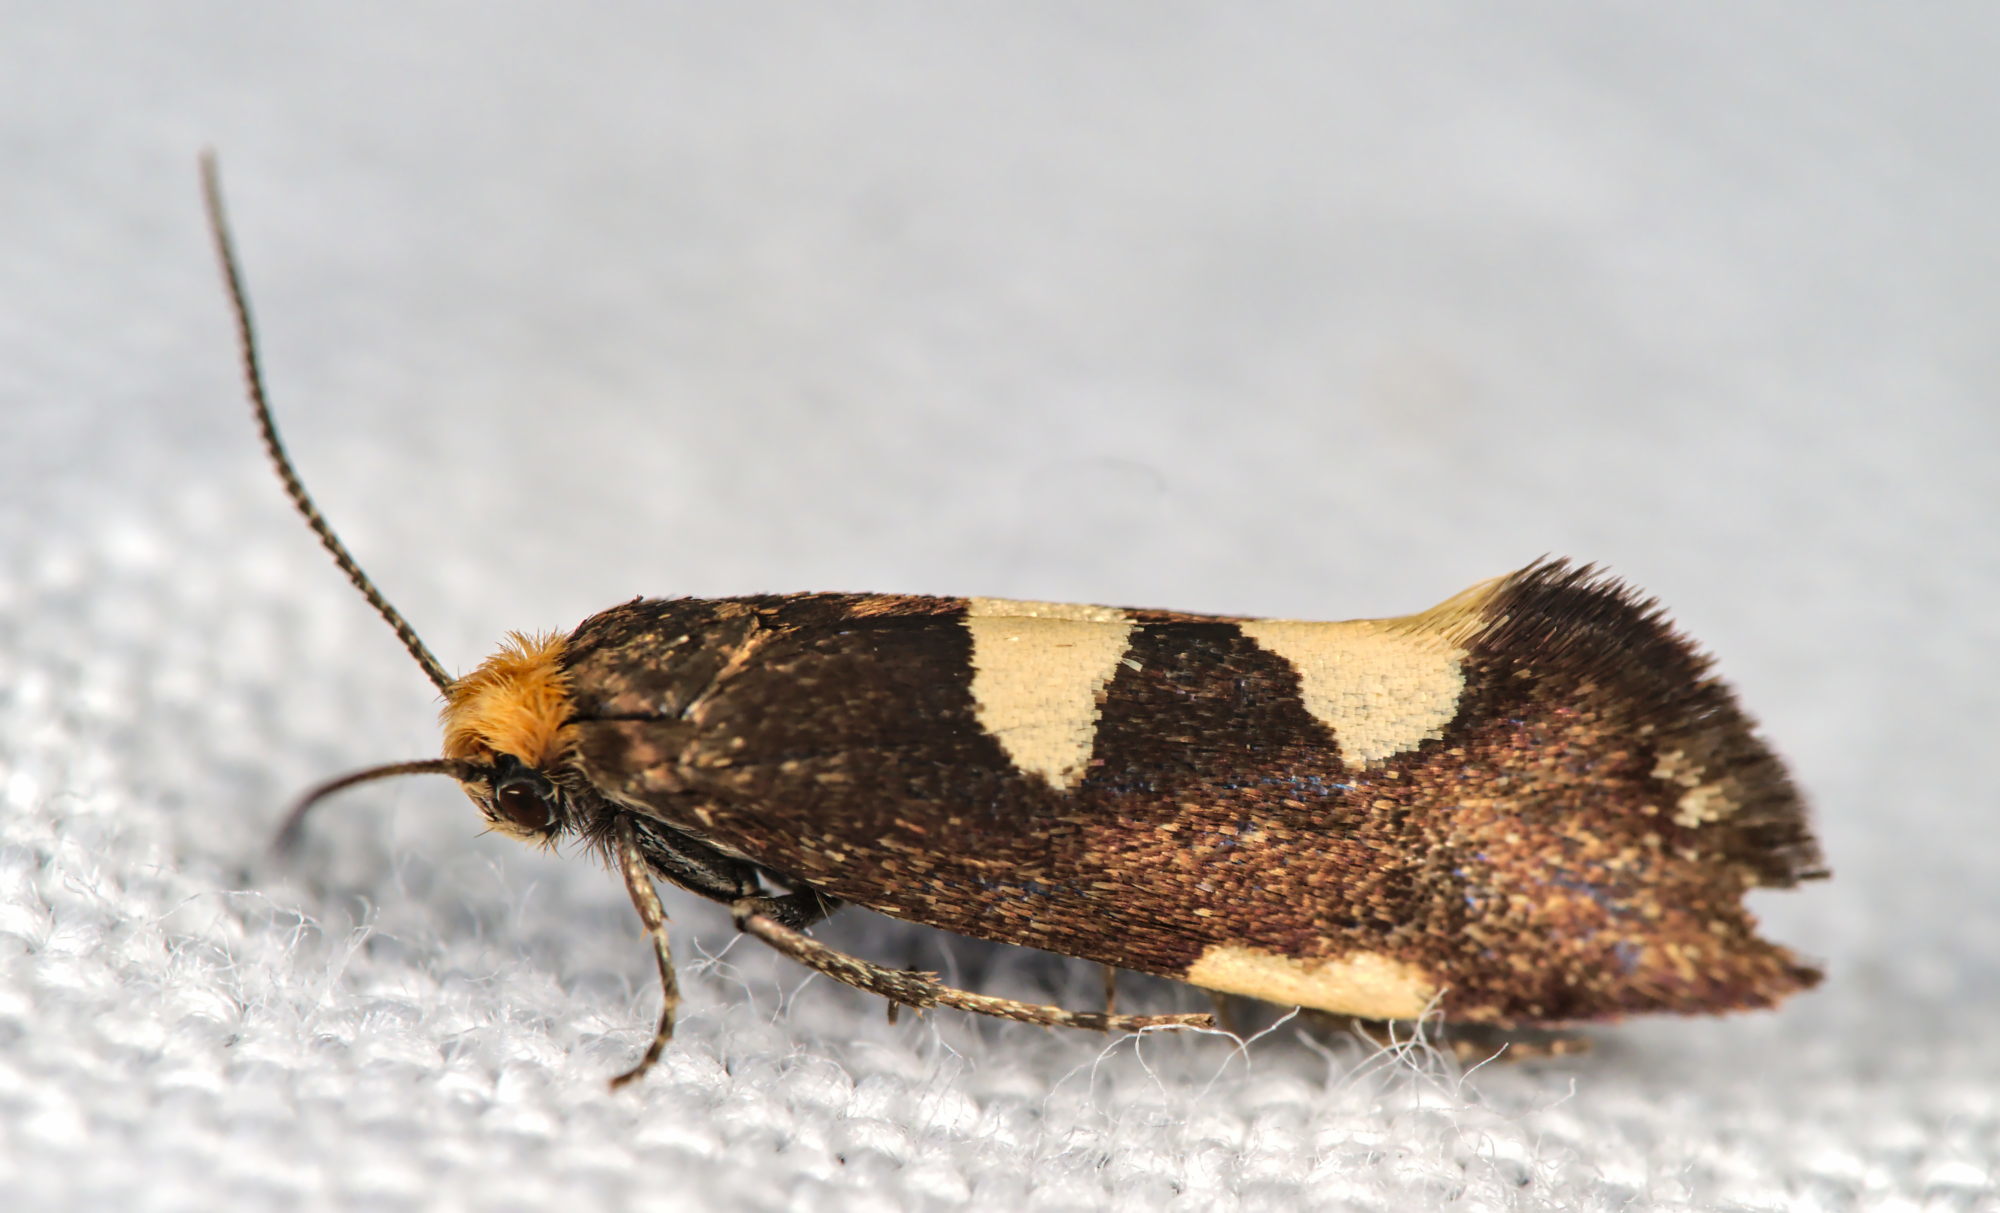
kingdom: Animalia
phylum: Arthropoda
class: Insecta
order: Lepidoptera
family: Incurvariidae
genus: Incurvaria
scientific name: Incurvaria masculella
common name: Feathered leaf-cutter
